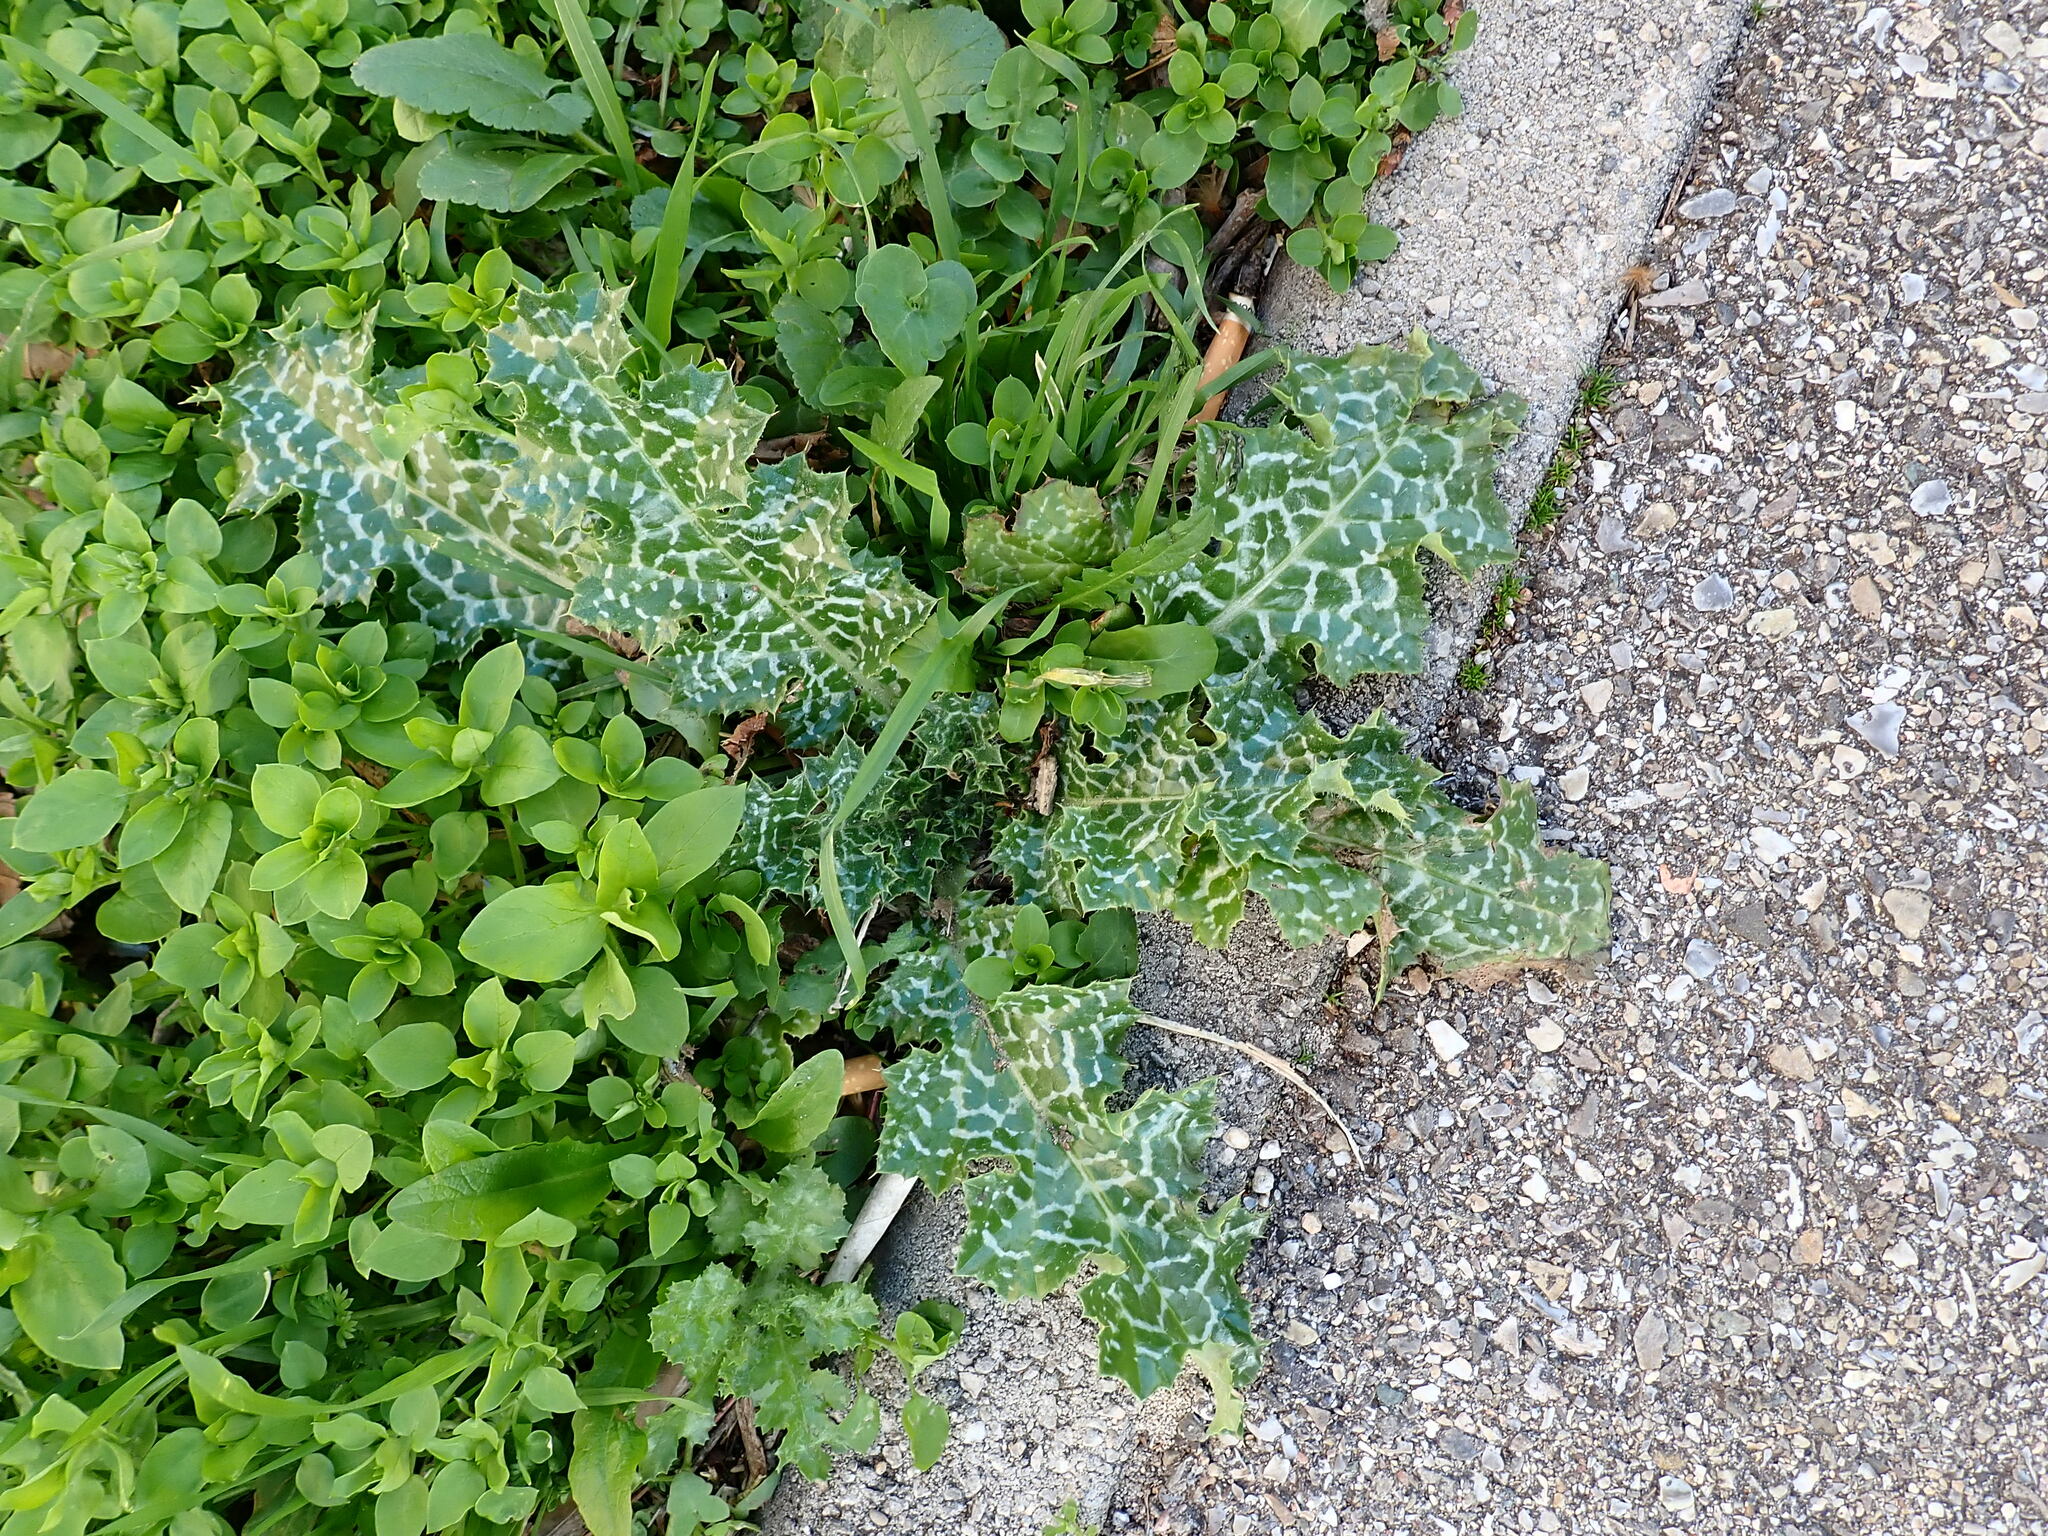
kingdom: Plantae
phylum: Tracheophyta
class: Magnoliopsida
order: Asterales
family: Asteraceae
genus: Silybum
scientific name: Silybum marianum
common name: Milk thistle
